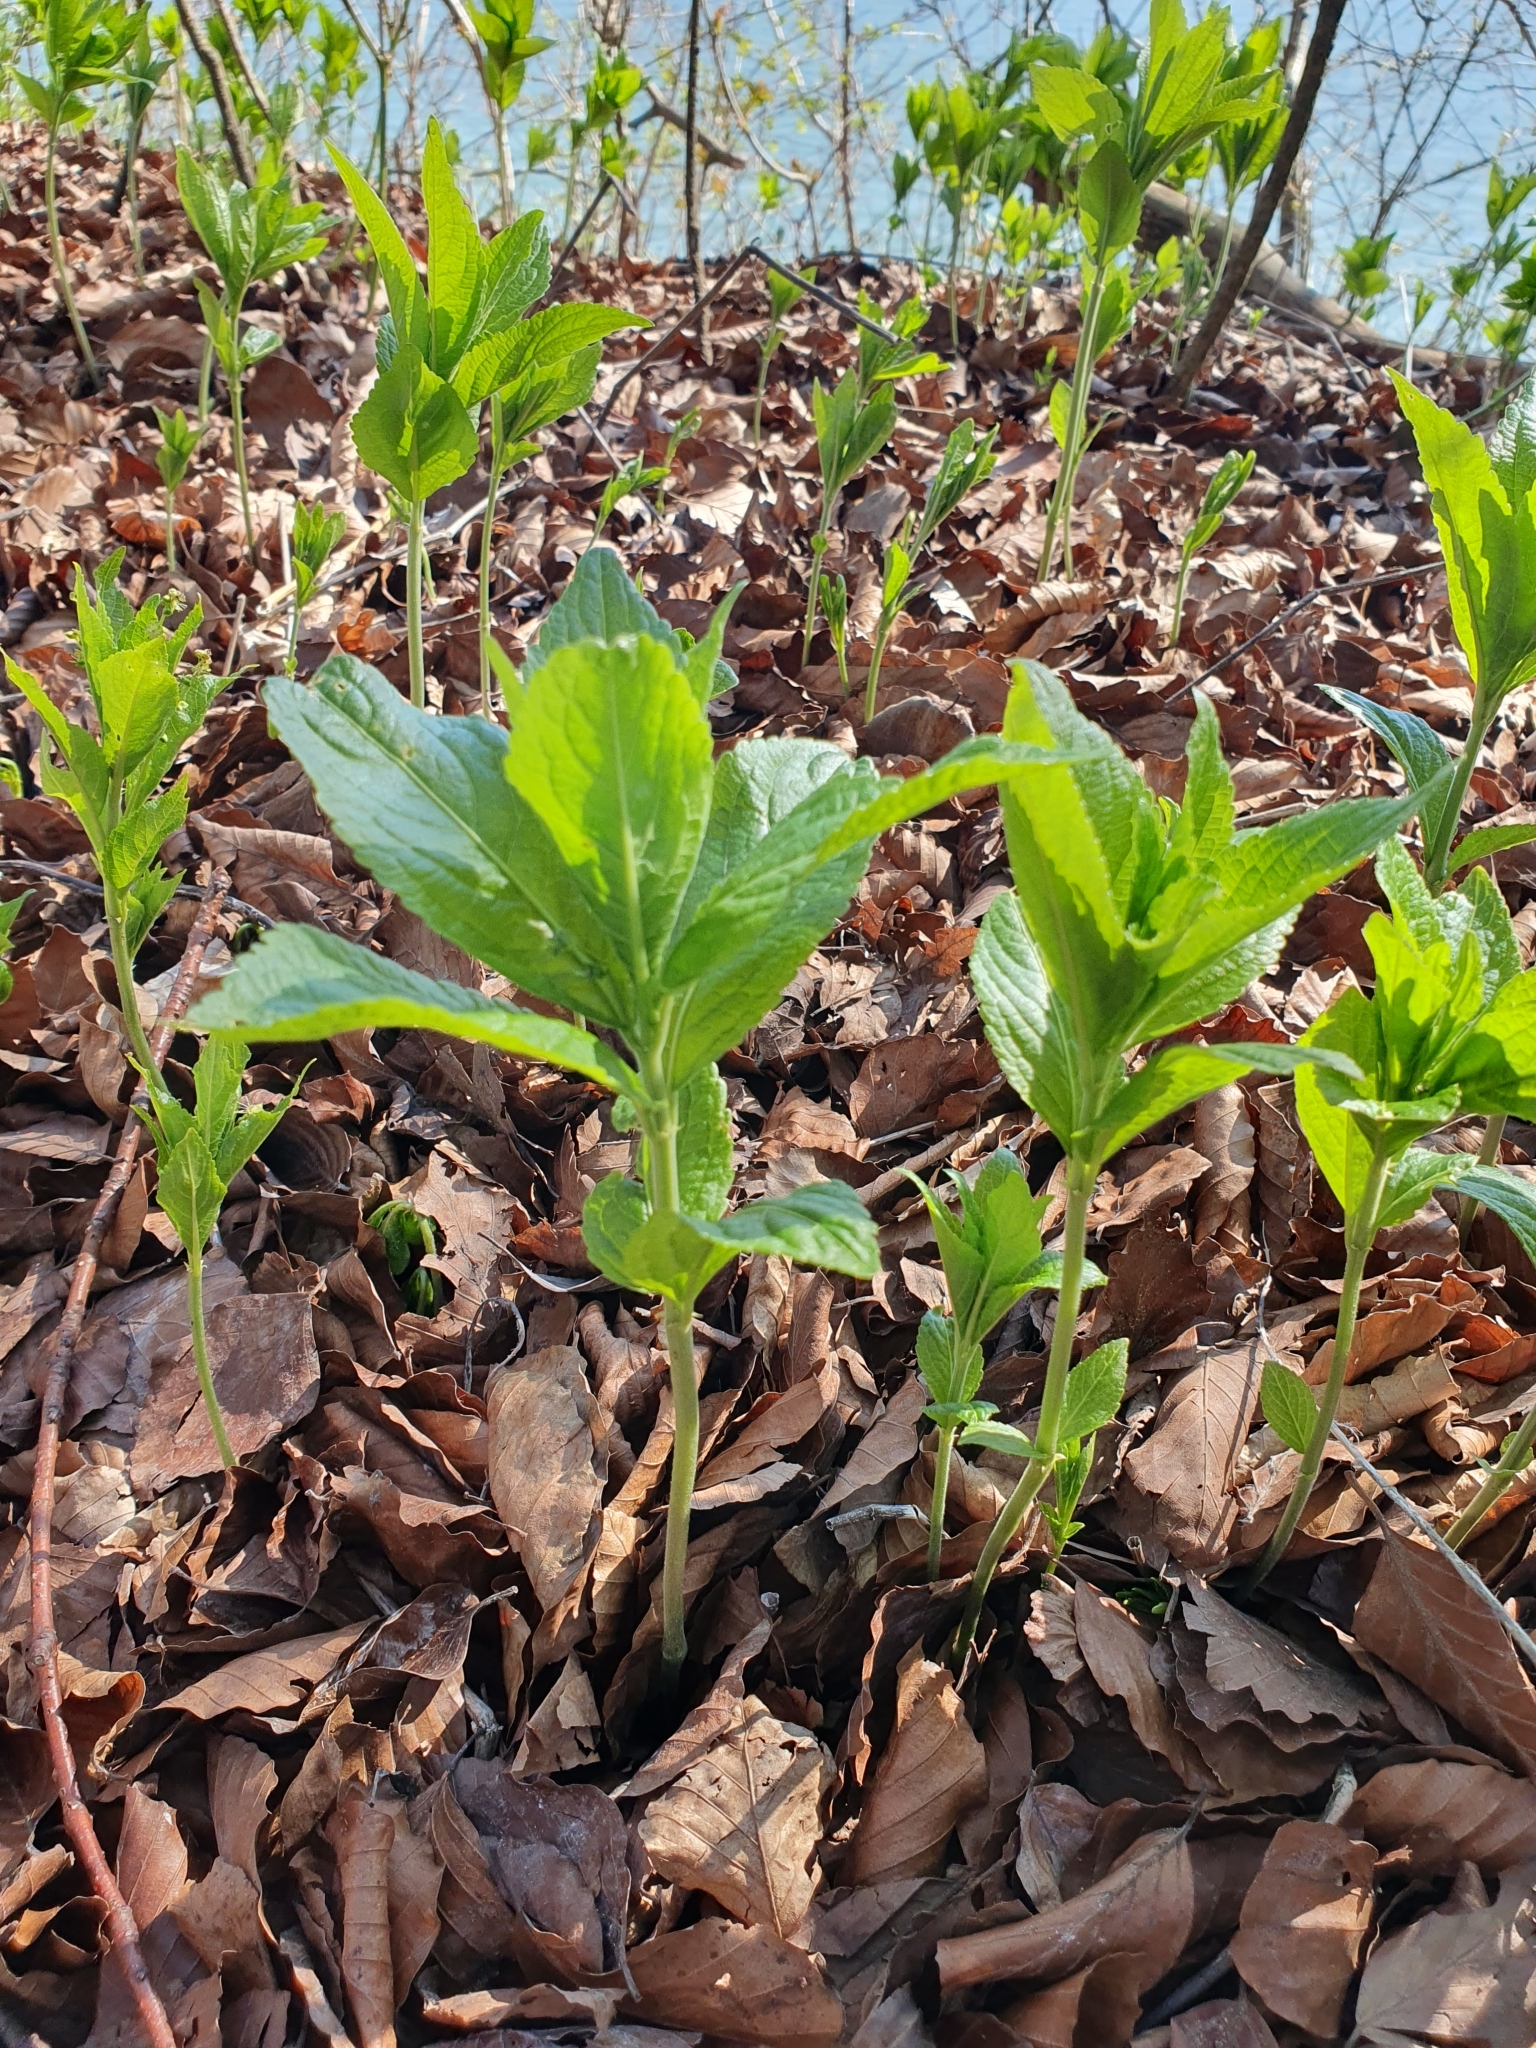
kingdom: Plantae
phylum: Tracheophyta
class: Magnoliopsida
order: Malpighiales
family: Euphorbiaceae
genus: Mercurialis
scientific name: Mercurialis perennis
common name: Dog mercury
